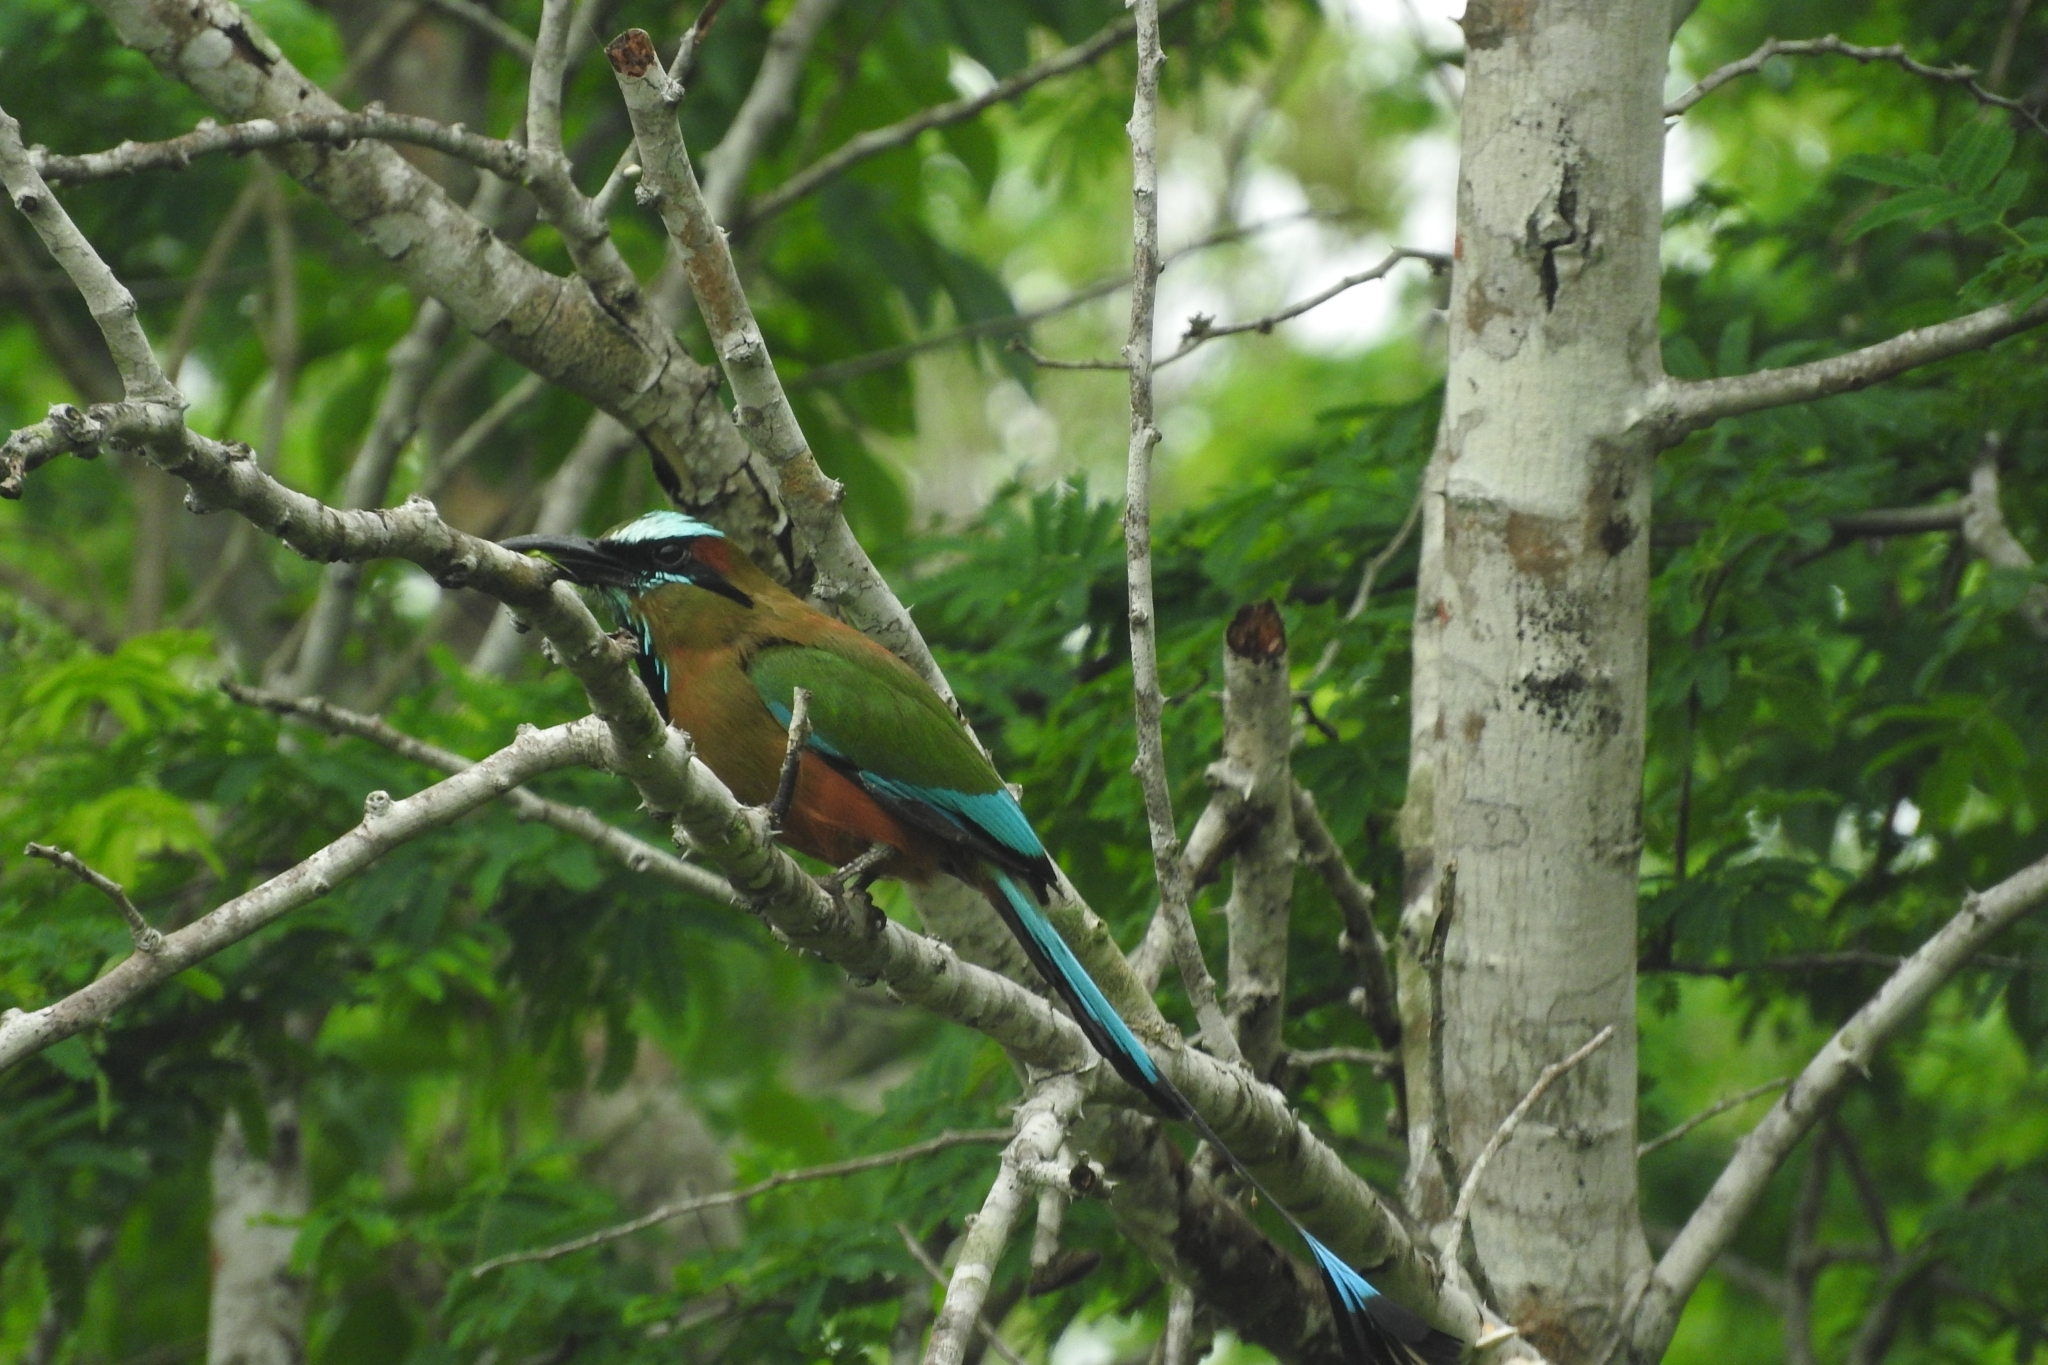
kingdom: Animalia
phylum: Chordata
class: Aves
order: Coraciiformes
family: Momotidae
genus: Eumomota
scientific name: Eumomota superciliosa
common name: Turquoise-browed motmot
